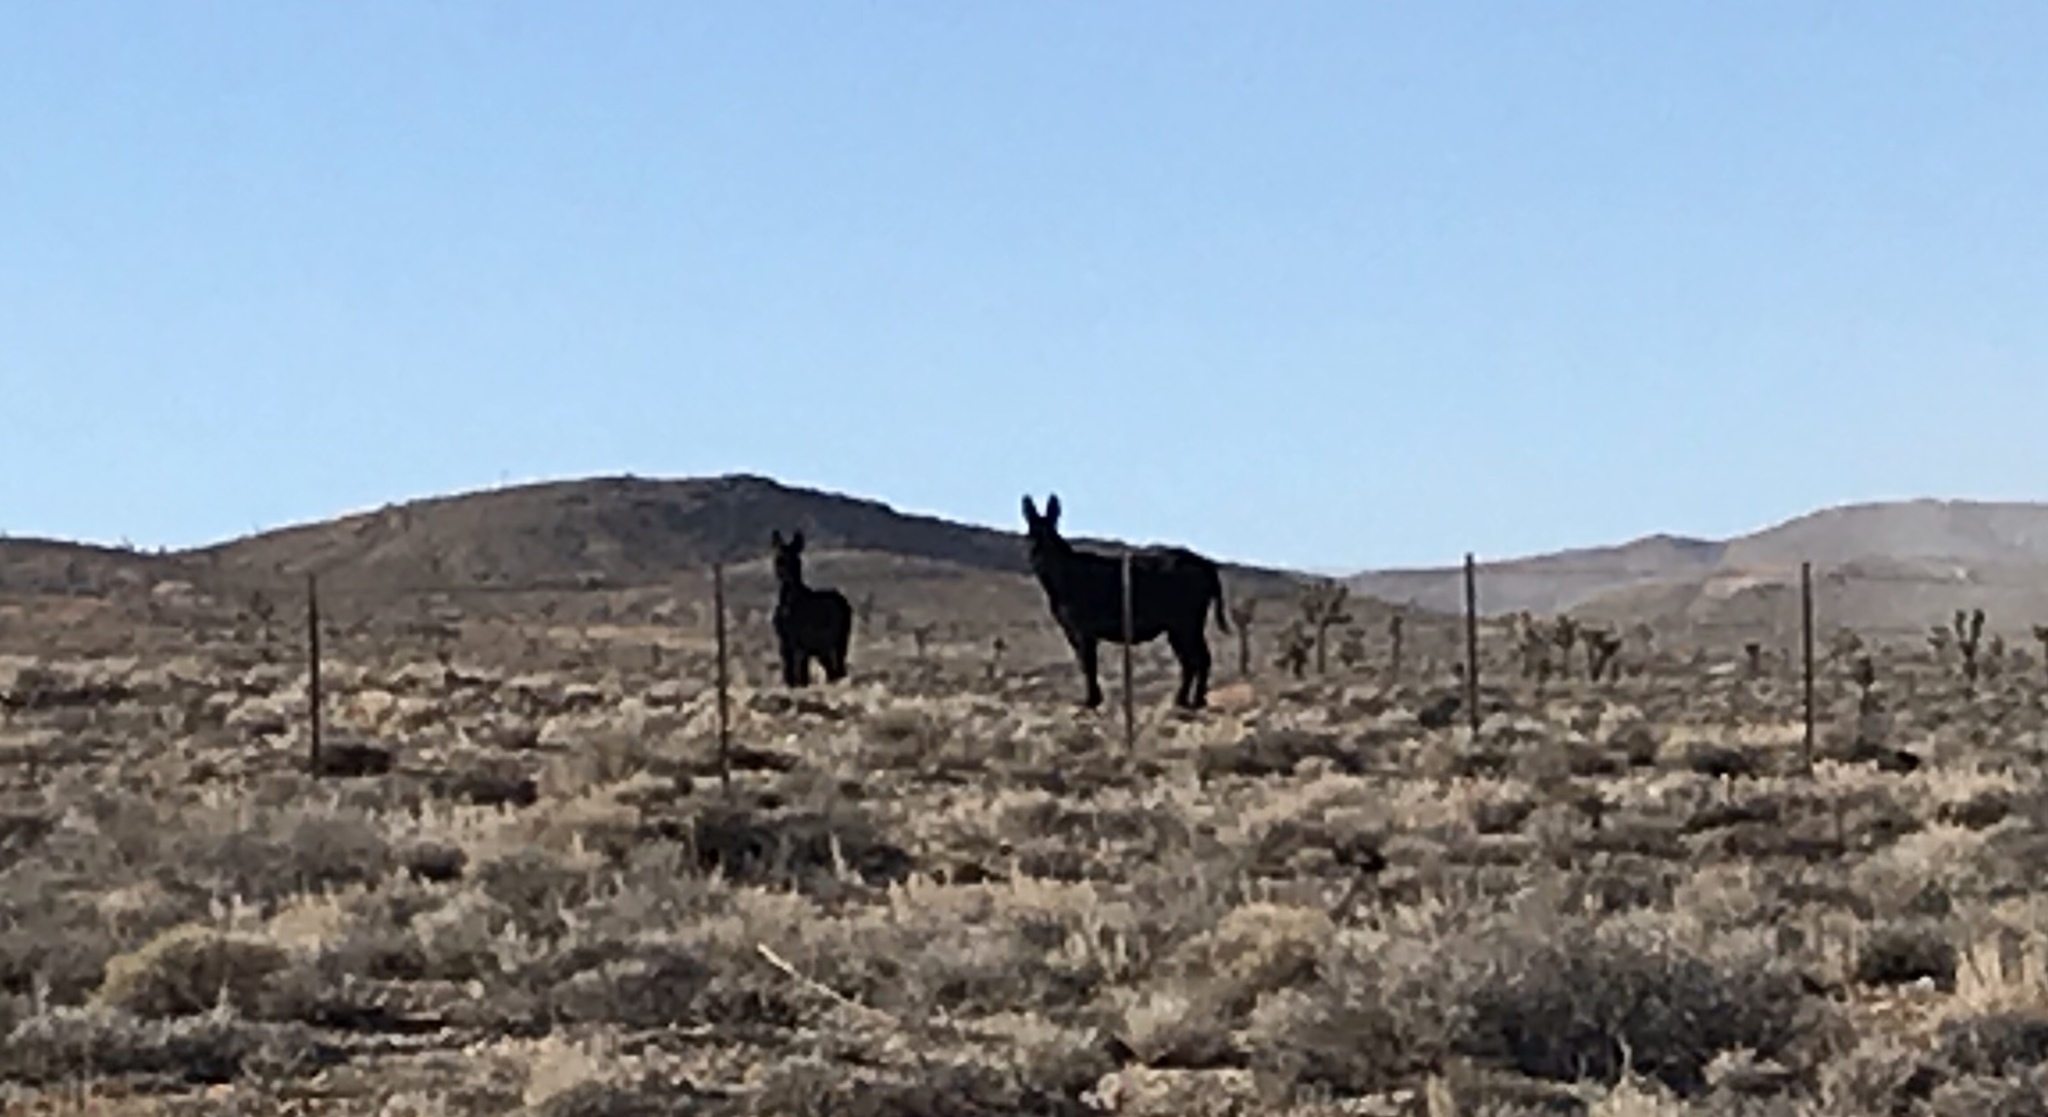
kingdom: Animalia
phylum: Chordata
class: Mammalia
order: Perissodactyla
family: Equidae
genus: Equus
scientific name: Equus asinus
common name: Ass
